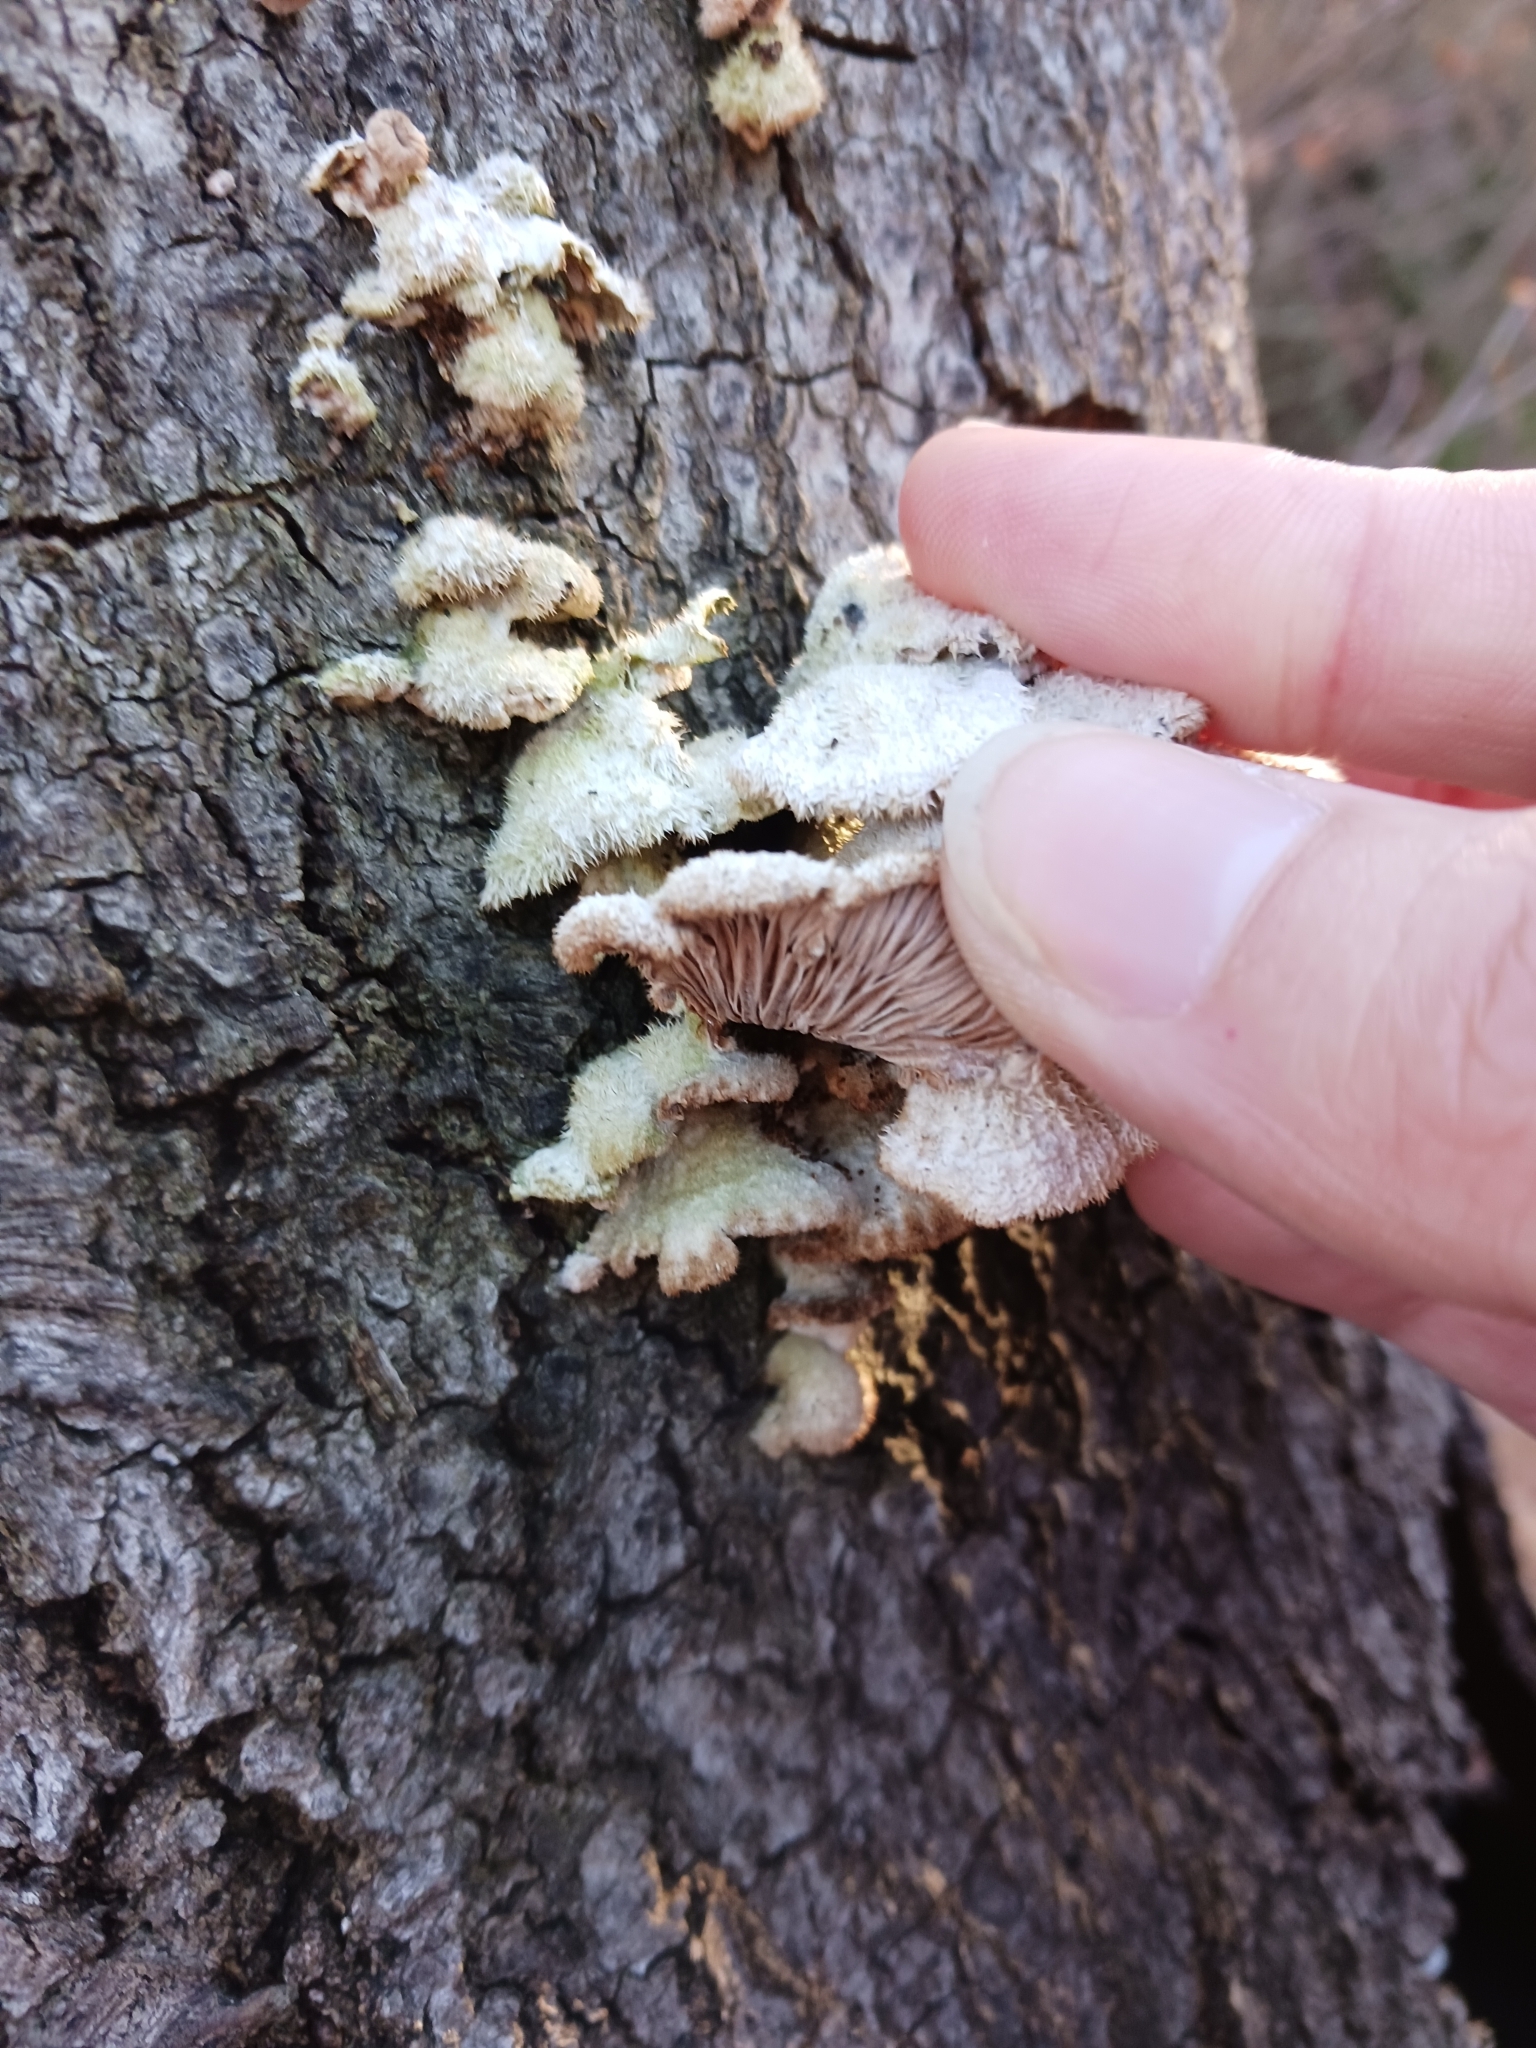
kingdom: Fungi
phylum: Basidiomycota
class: Agaricomycetes
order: Agaricales
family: Schizophyllaceae
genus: Schizophyllum
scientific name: Schizophyllum commune
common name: Common porecrust
